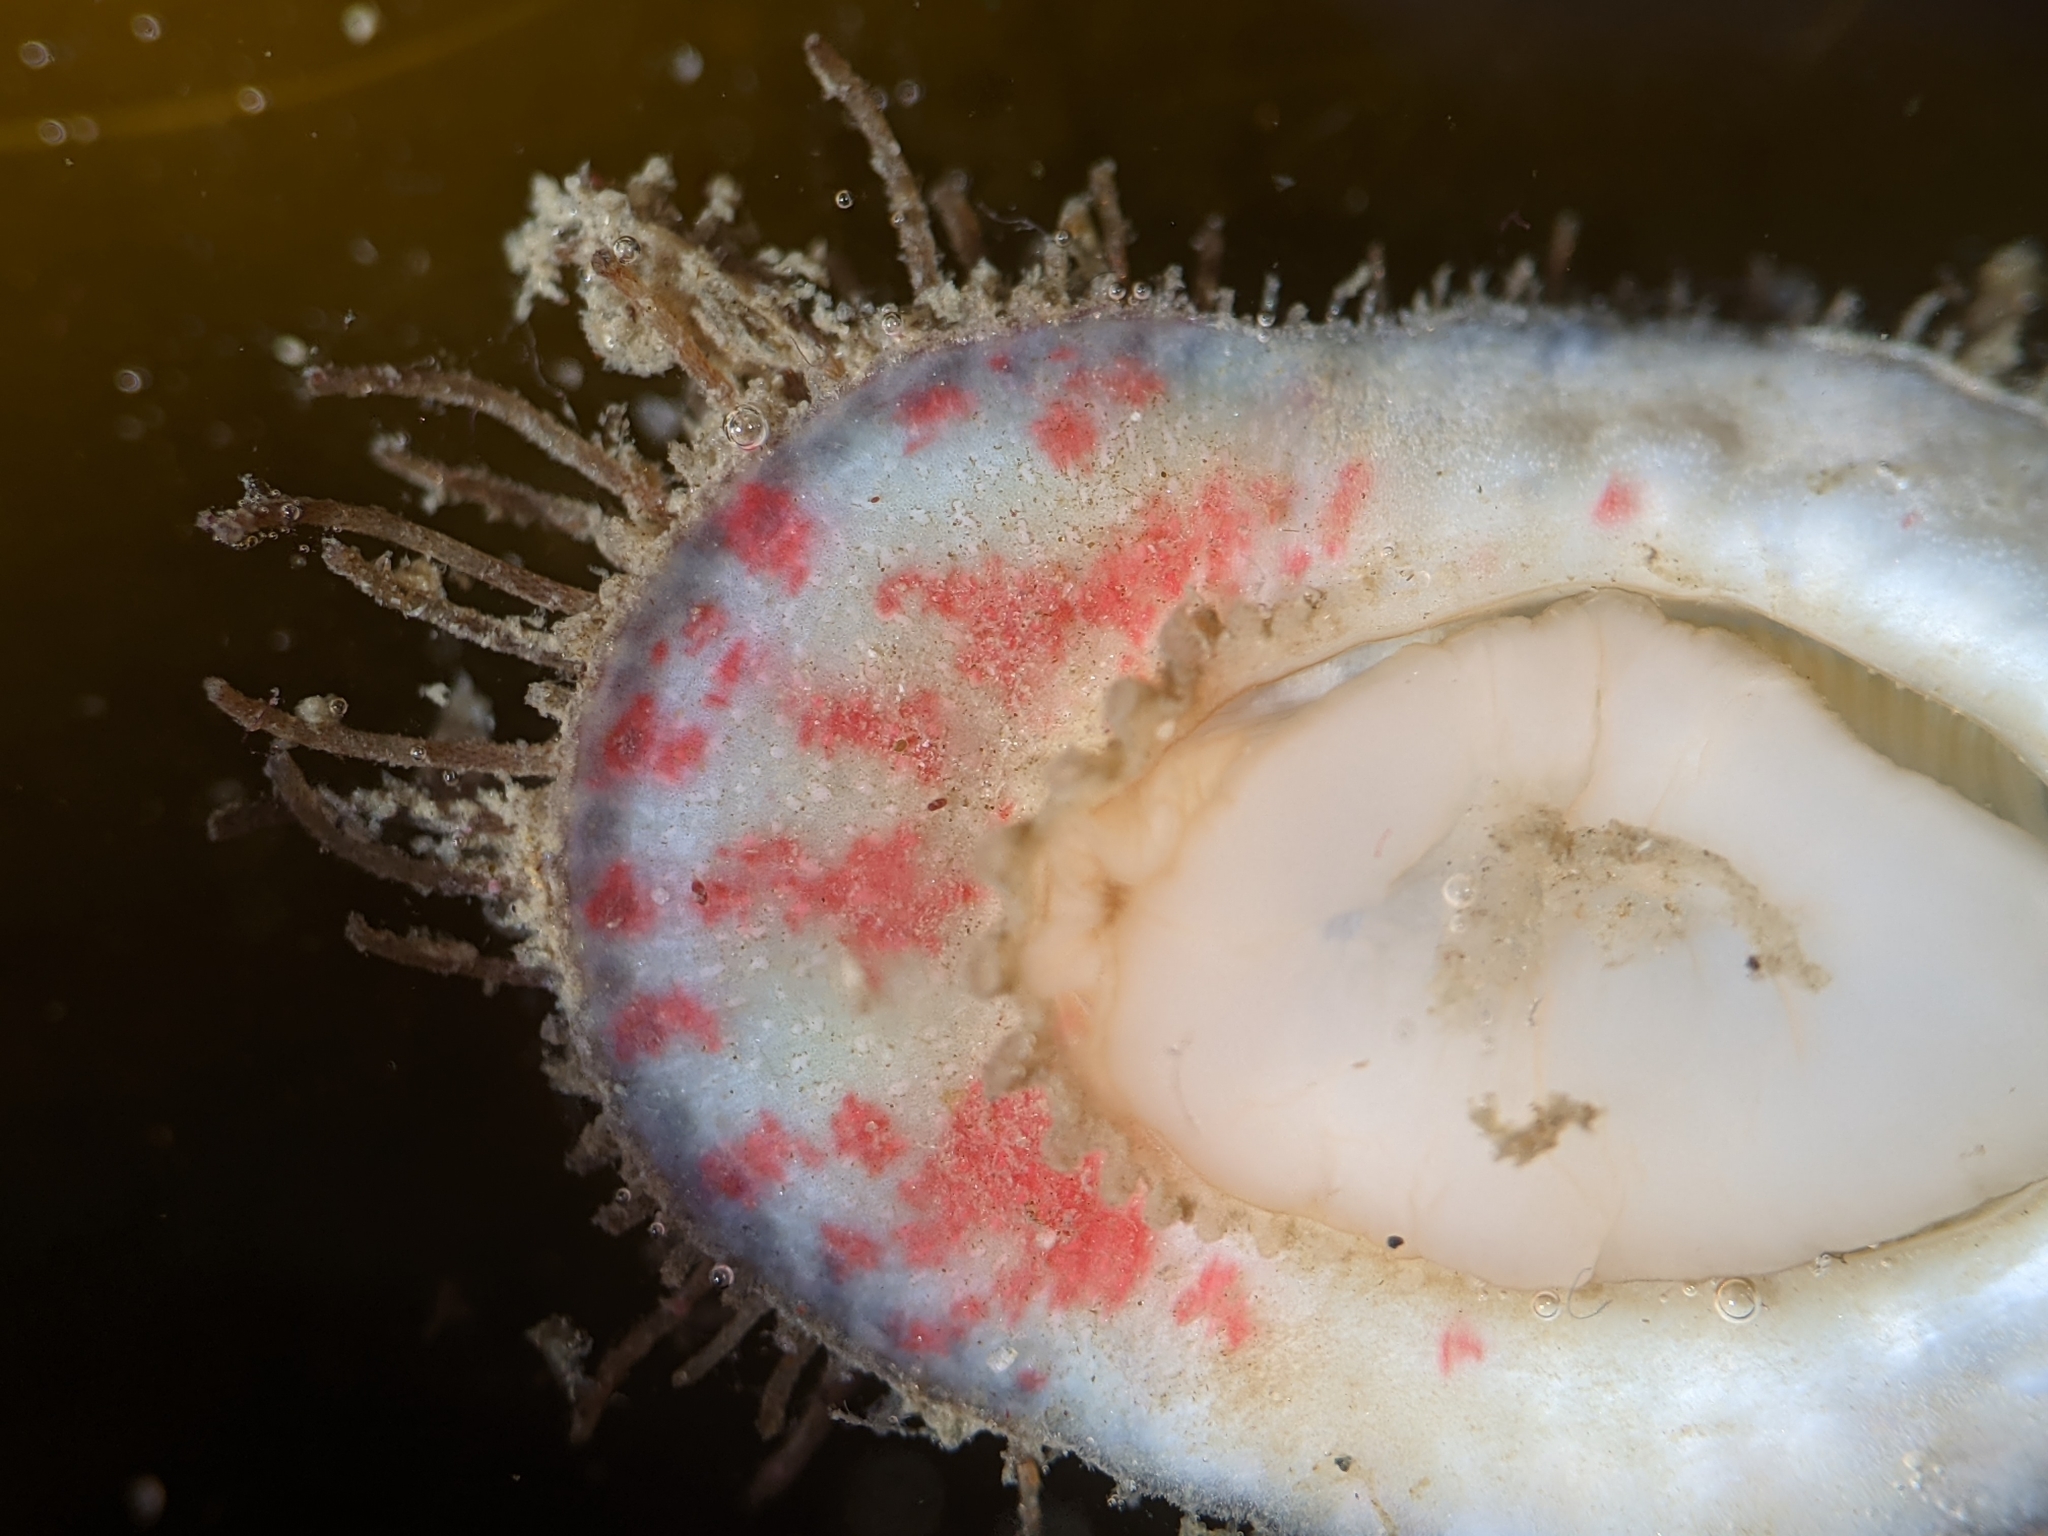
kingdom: Animalia
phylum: Mollusca
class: Polyplacophora
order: Chitonida
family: Mopaliidae
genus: Placiphorella
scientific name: Placiphorella velata
